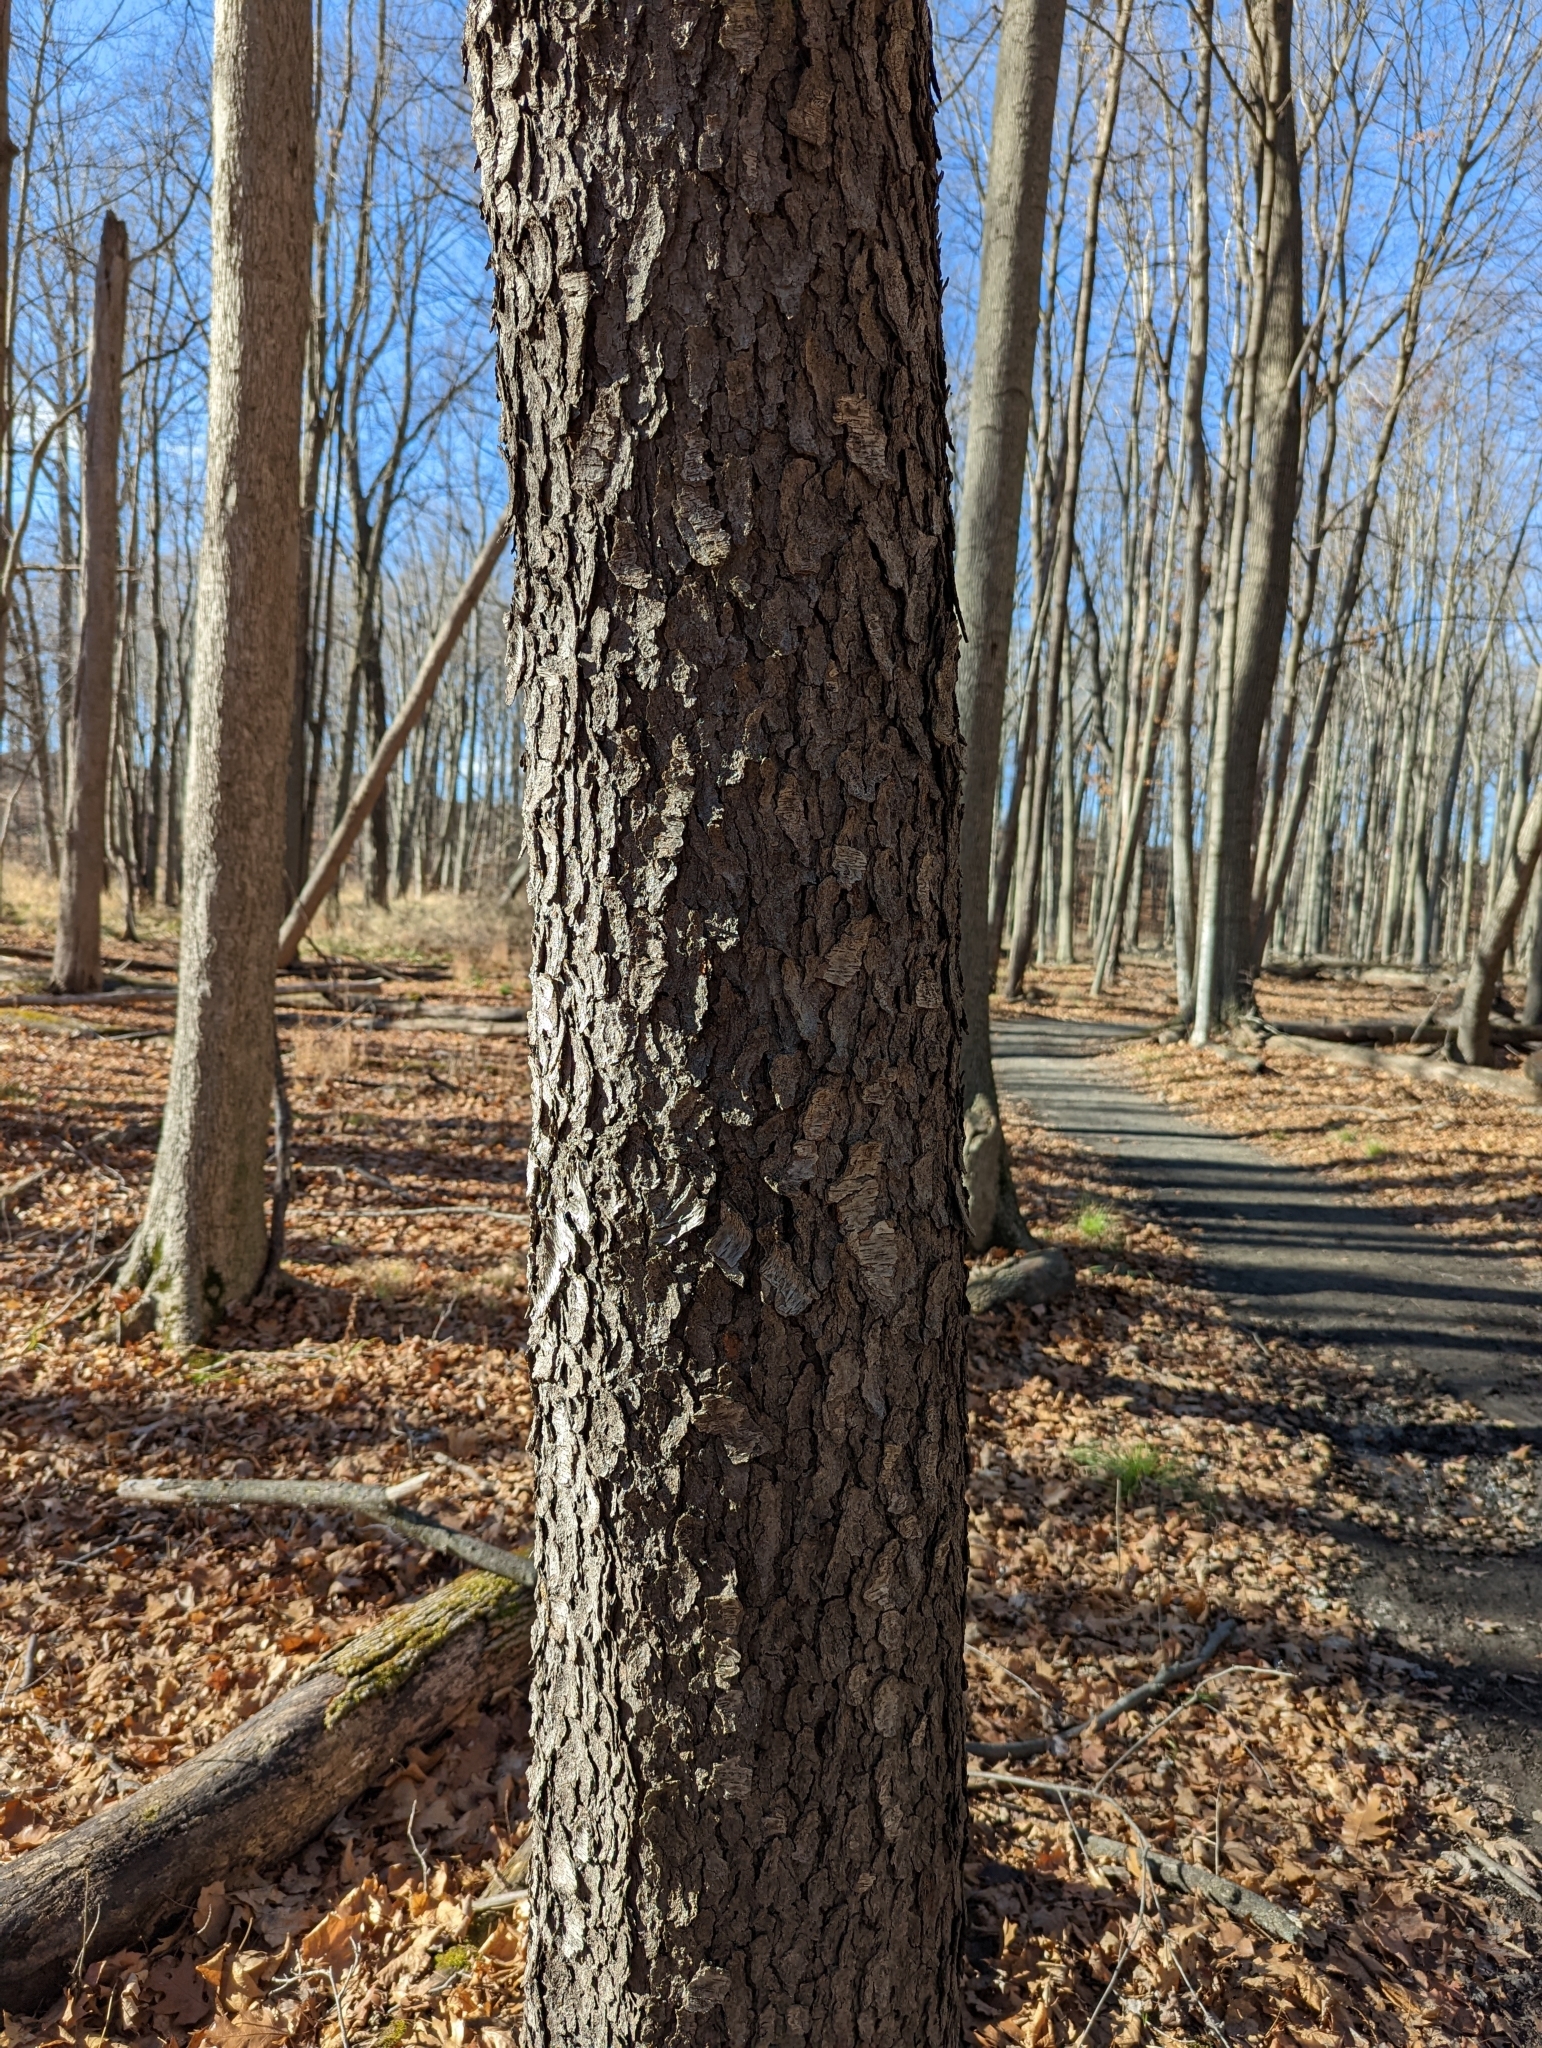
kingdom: Plantae
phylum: Tracheophyta
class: Magnoliopsida
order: Rosales
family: Rosaceae
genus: Prunus
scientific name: Prunus serotina
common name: Black cherry
